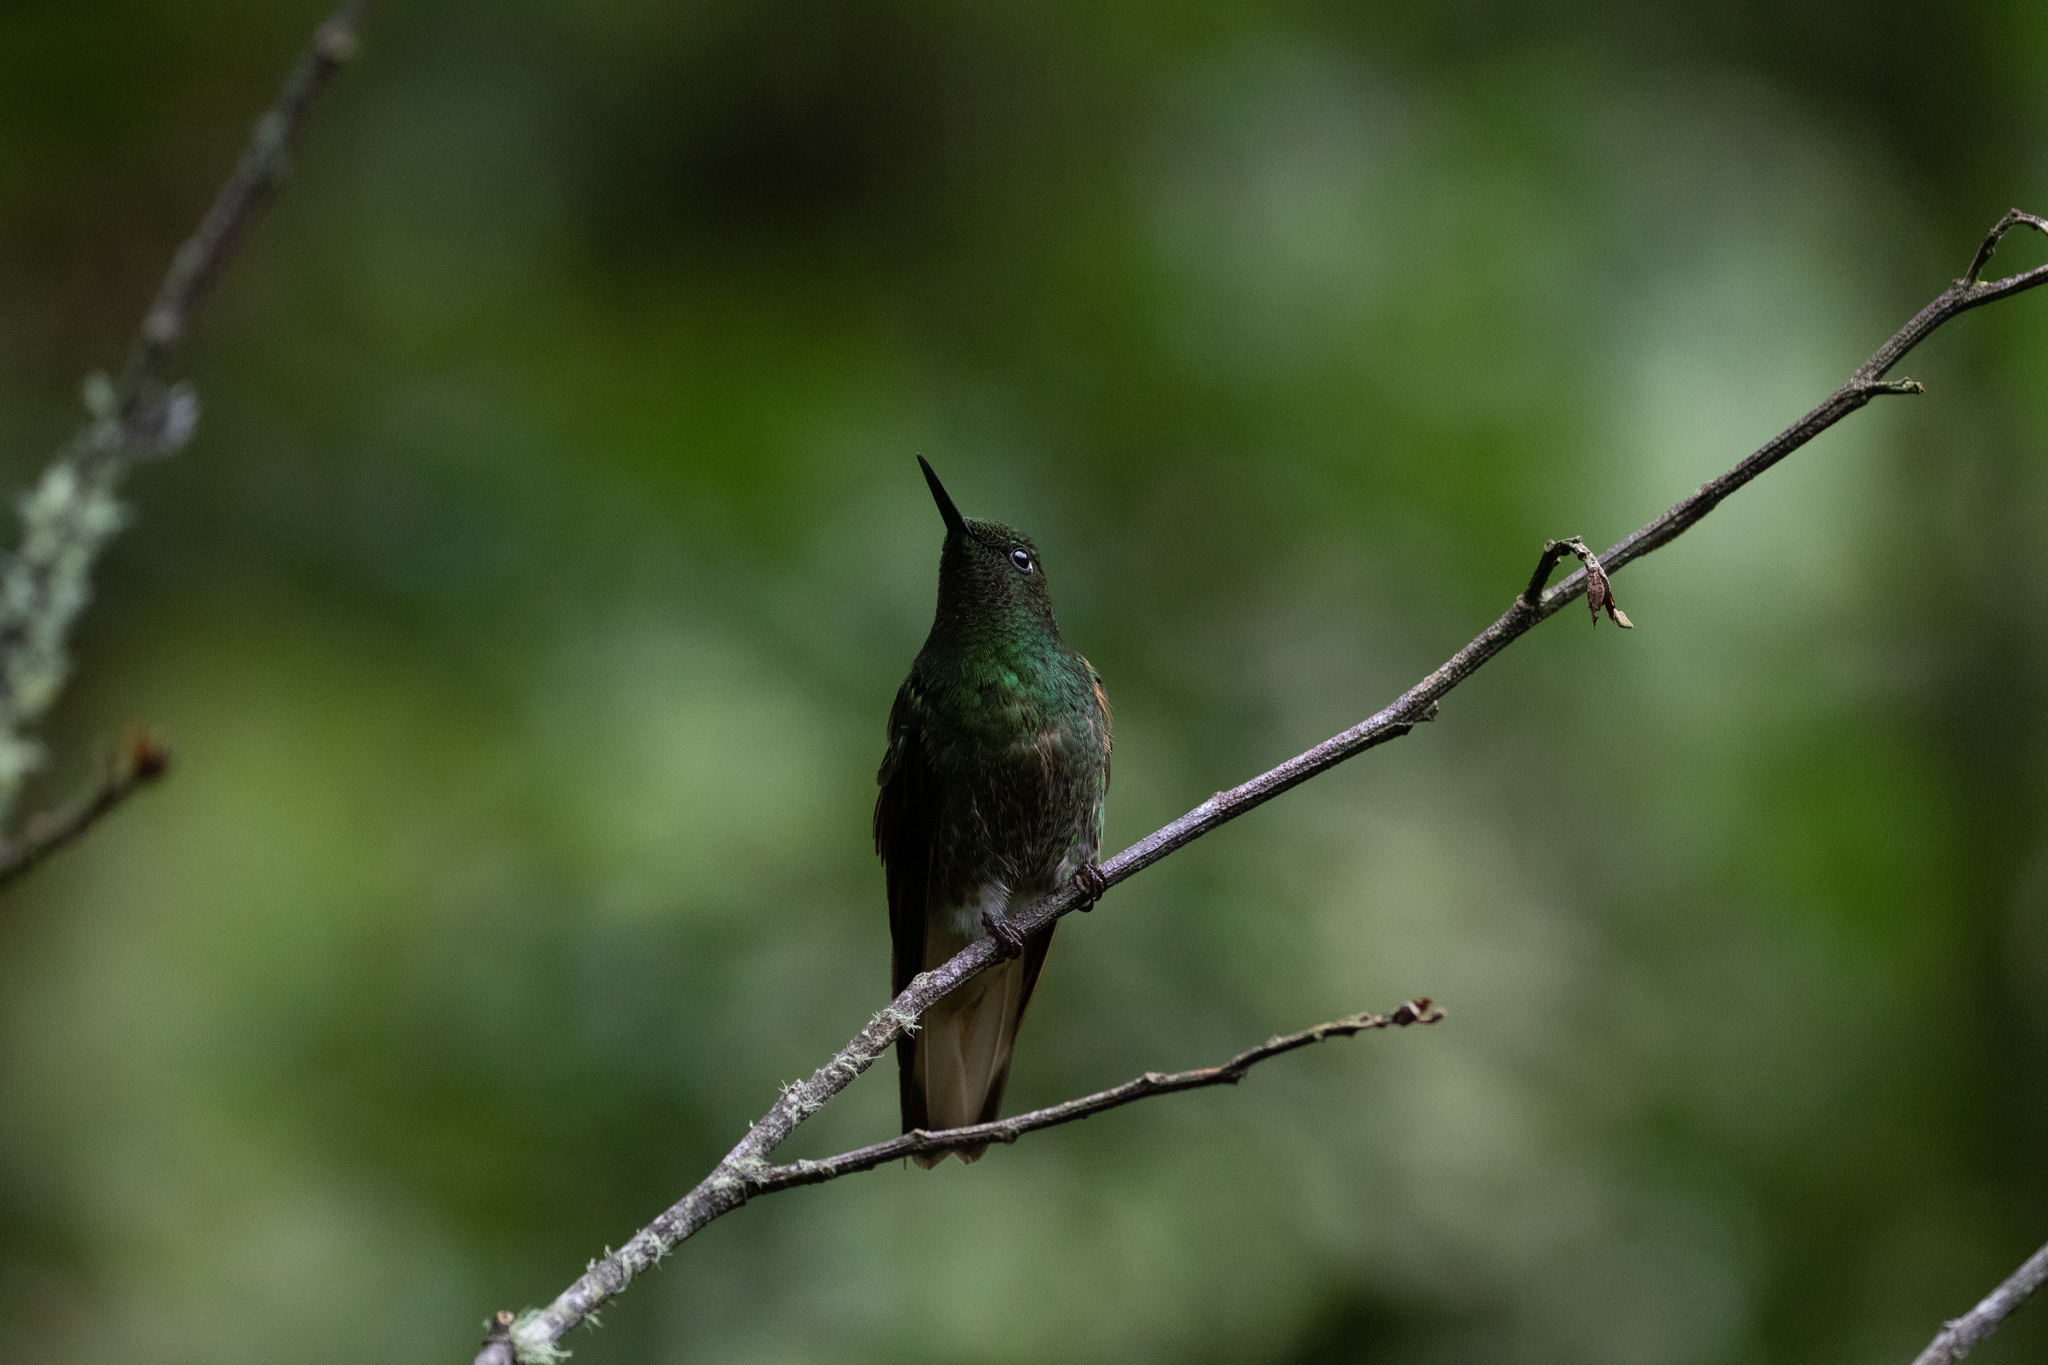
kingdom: Animalia
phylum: Chordata
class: Aves
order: Apodiformes
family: Trochilidae
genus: Boissonneaua
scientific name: Boissonneaua flavescens
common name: Buff-tailed coronet
